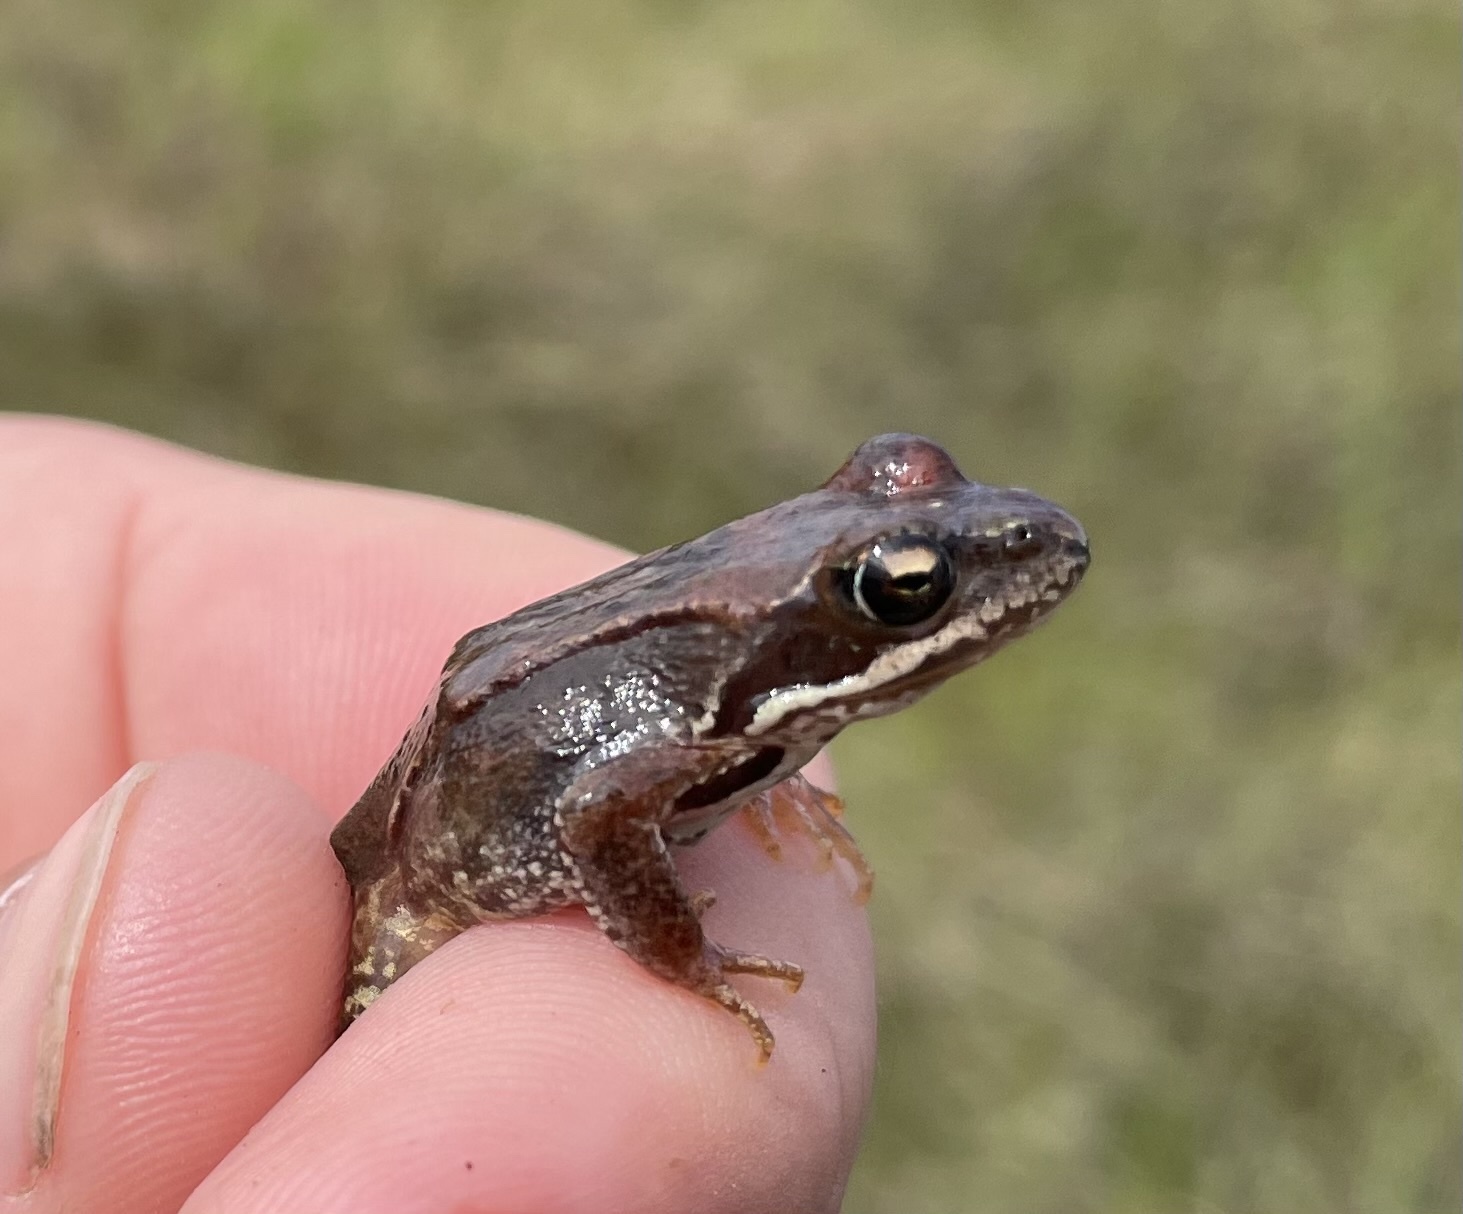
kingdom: Animalia
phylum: Chordata
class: Amphibia
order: Anura
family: Ranidae
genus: Rana
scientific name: Rana temporaria
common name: Common frog
